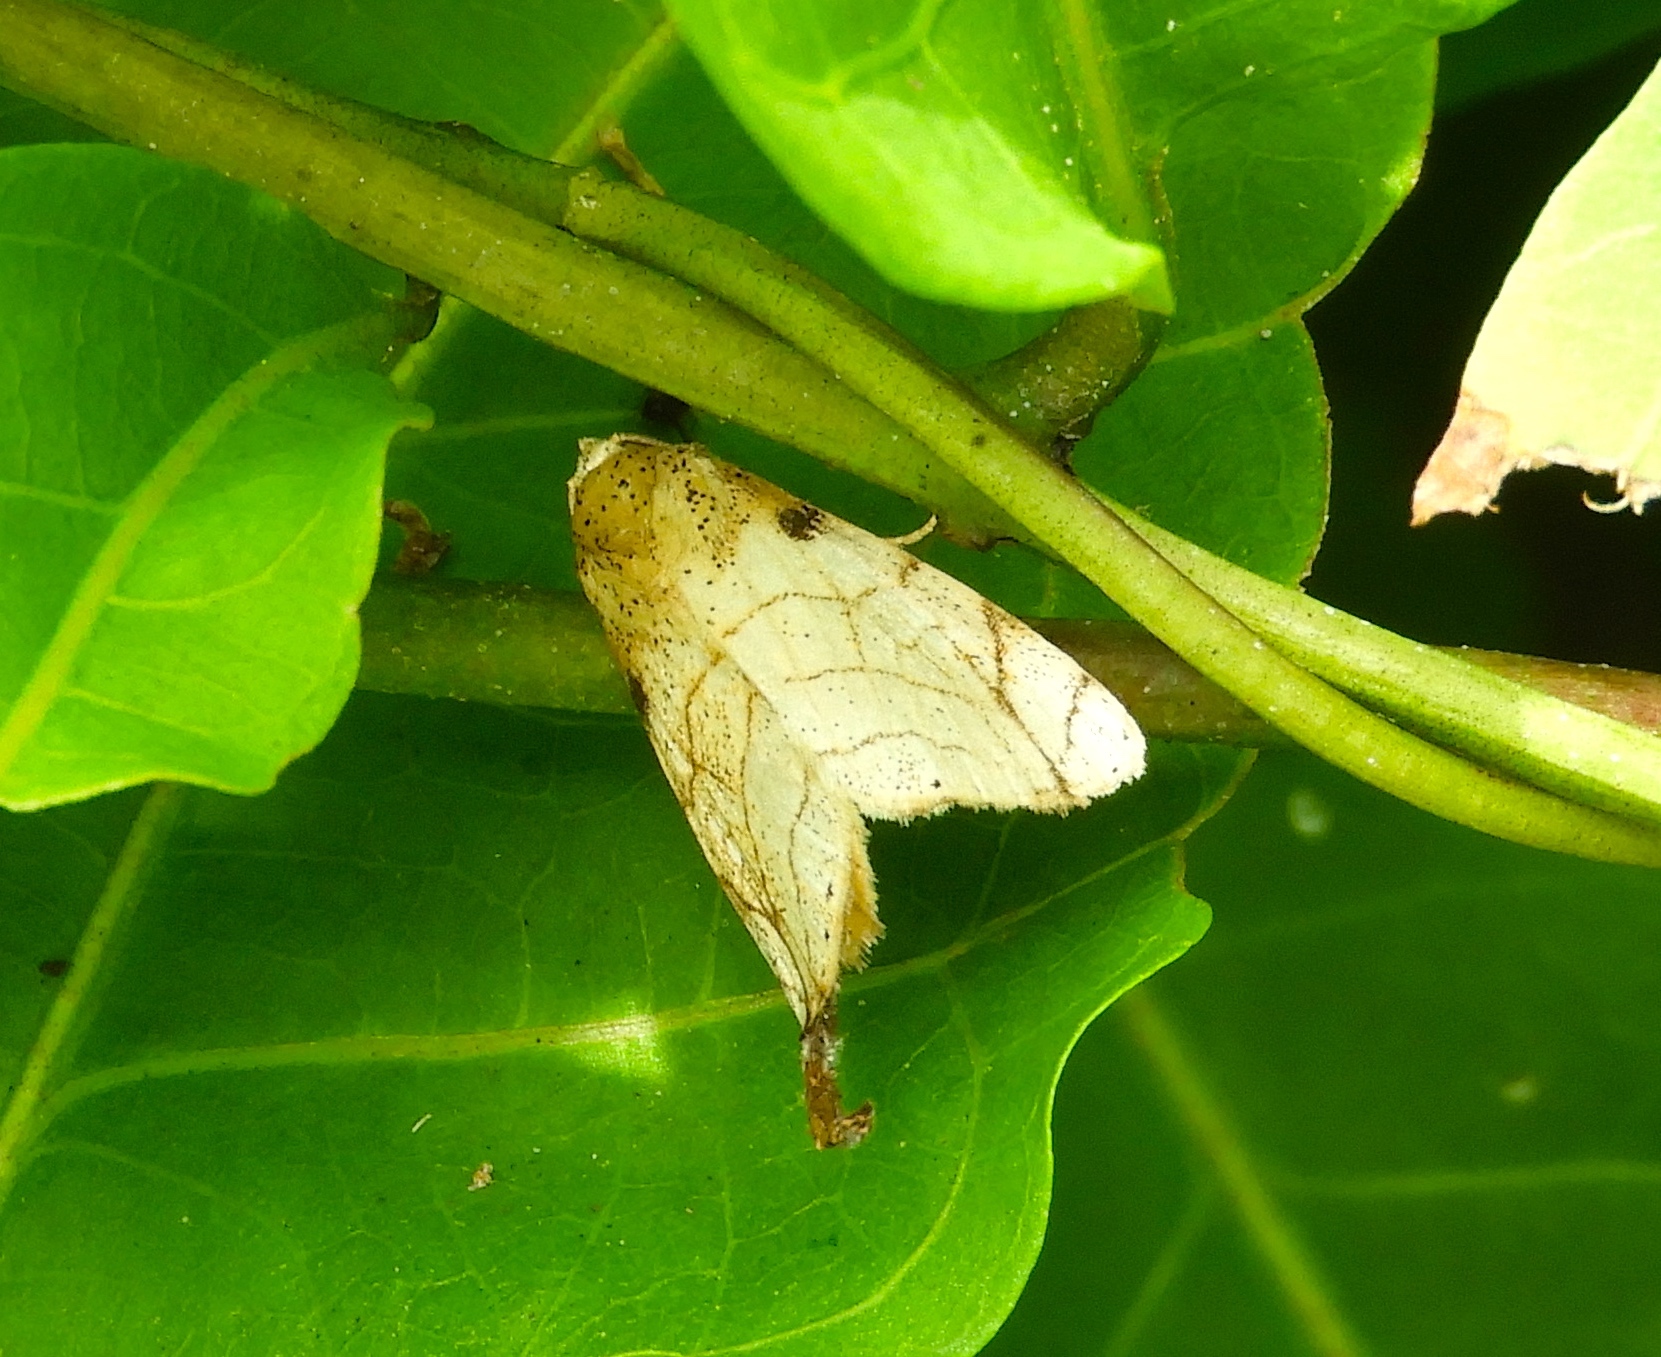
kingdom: Animalia
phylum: Arthropoda
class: Insecta
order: Lepidoptera
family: Noctuidae
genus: Bagisara
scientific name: Bagisara tristicta
